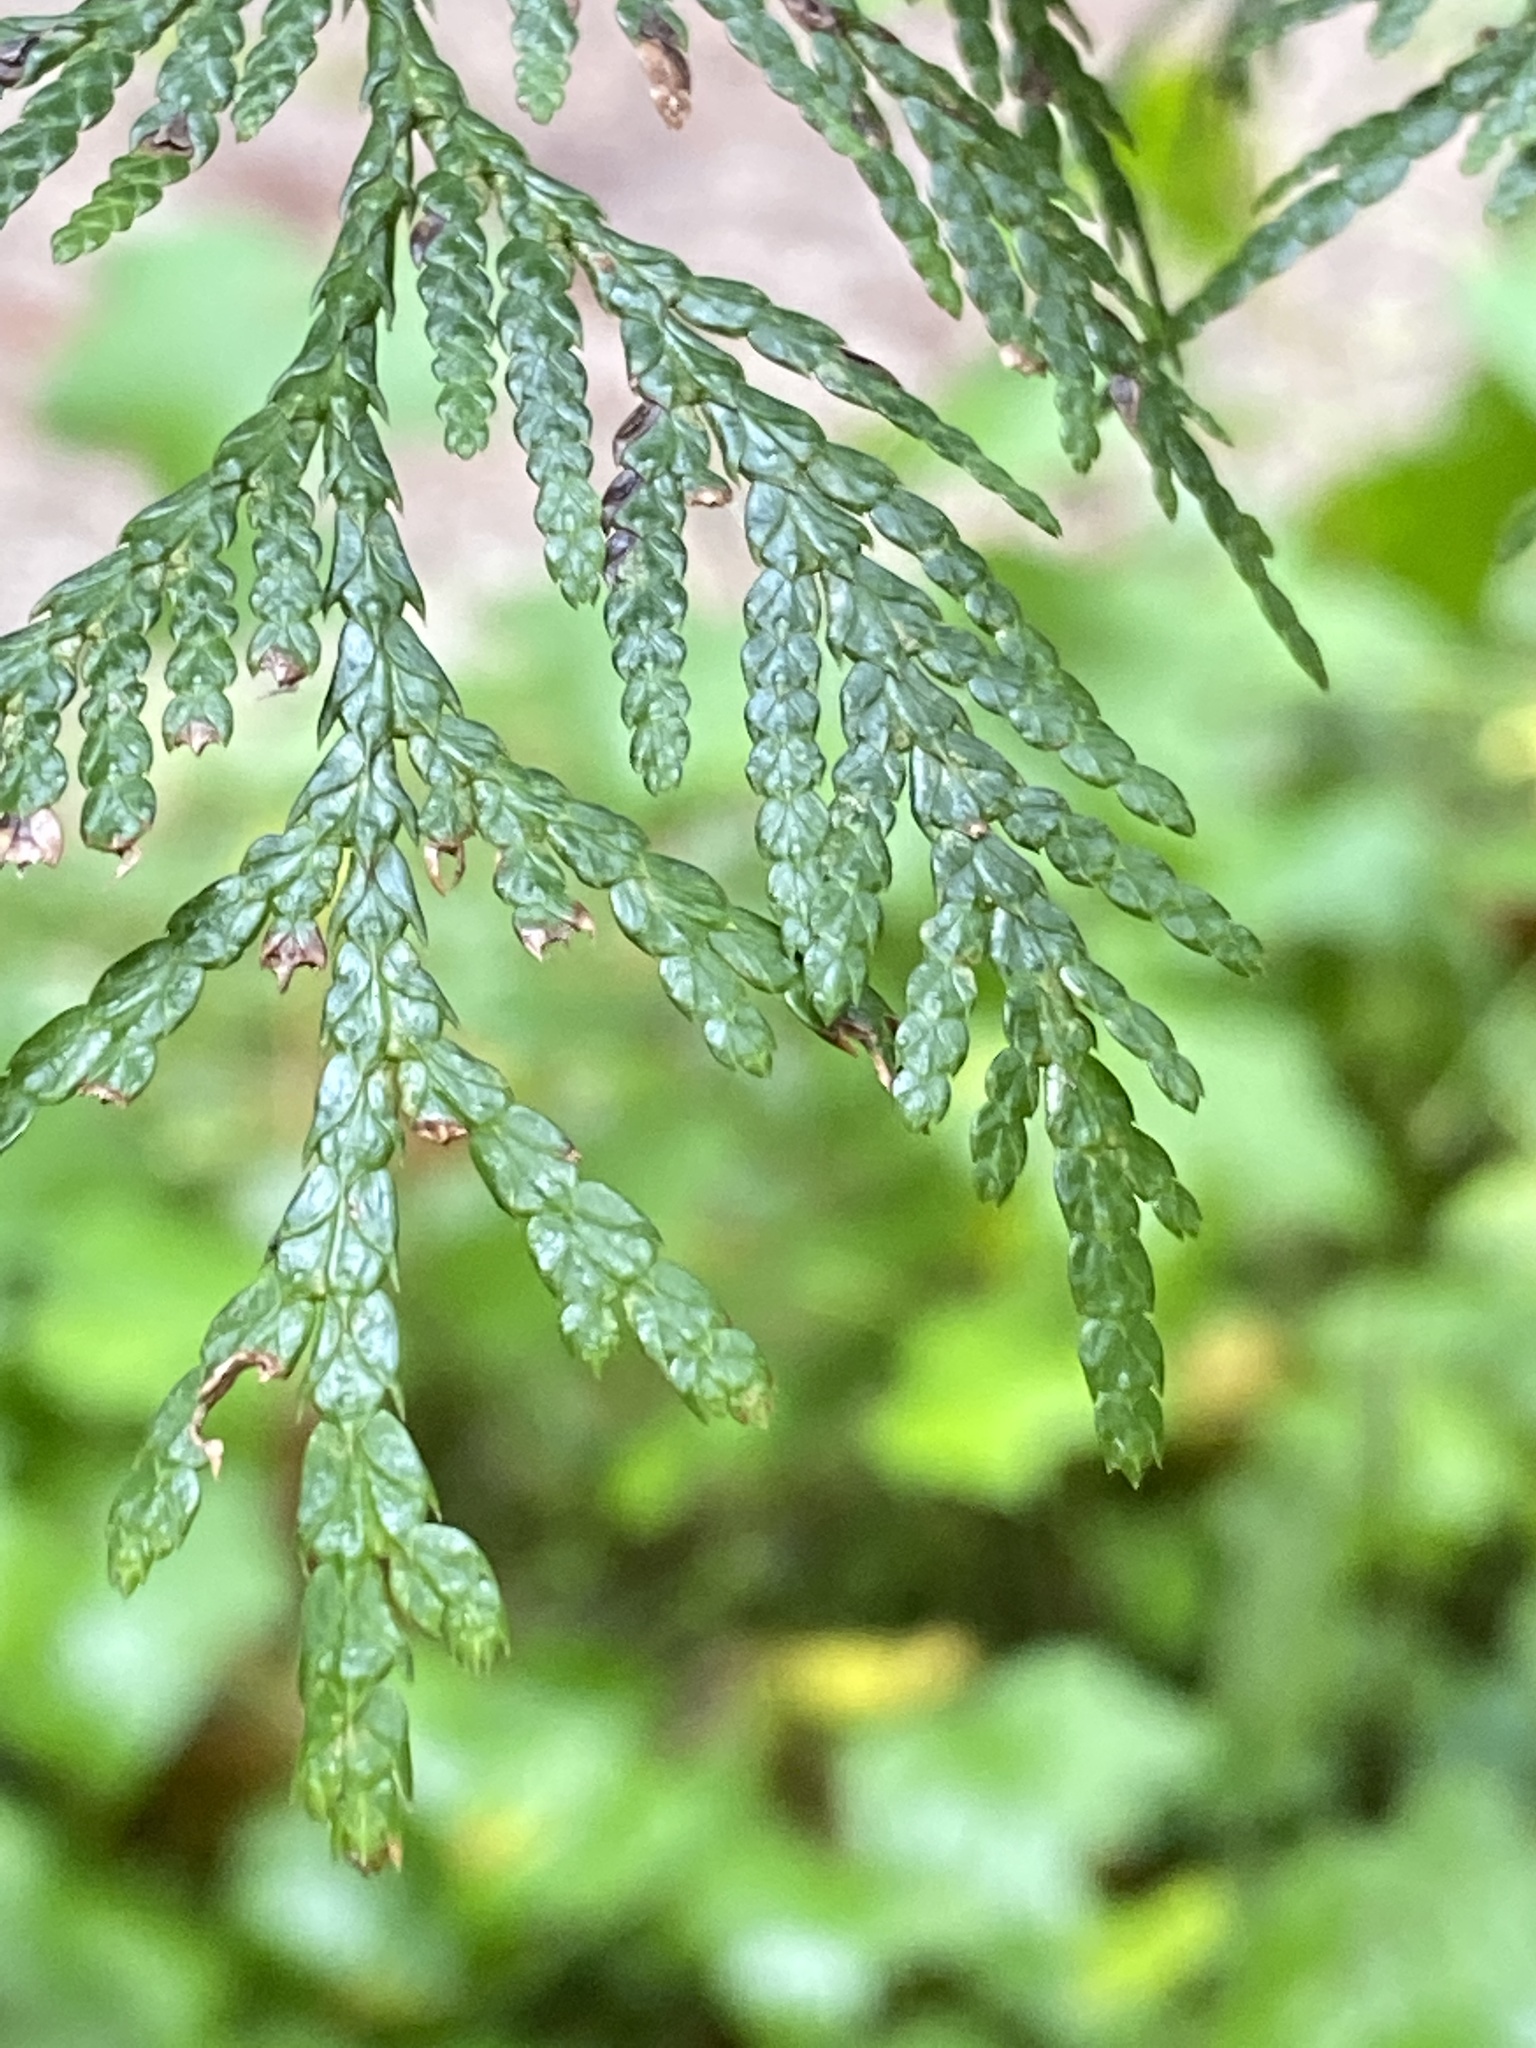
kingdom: Plantae
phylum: Tracheophyta
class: Pinopsida
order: Pinales
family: Cupressaceae
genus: Thuja
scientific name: Thuja plicata
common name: Western red-cedar
